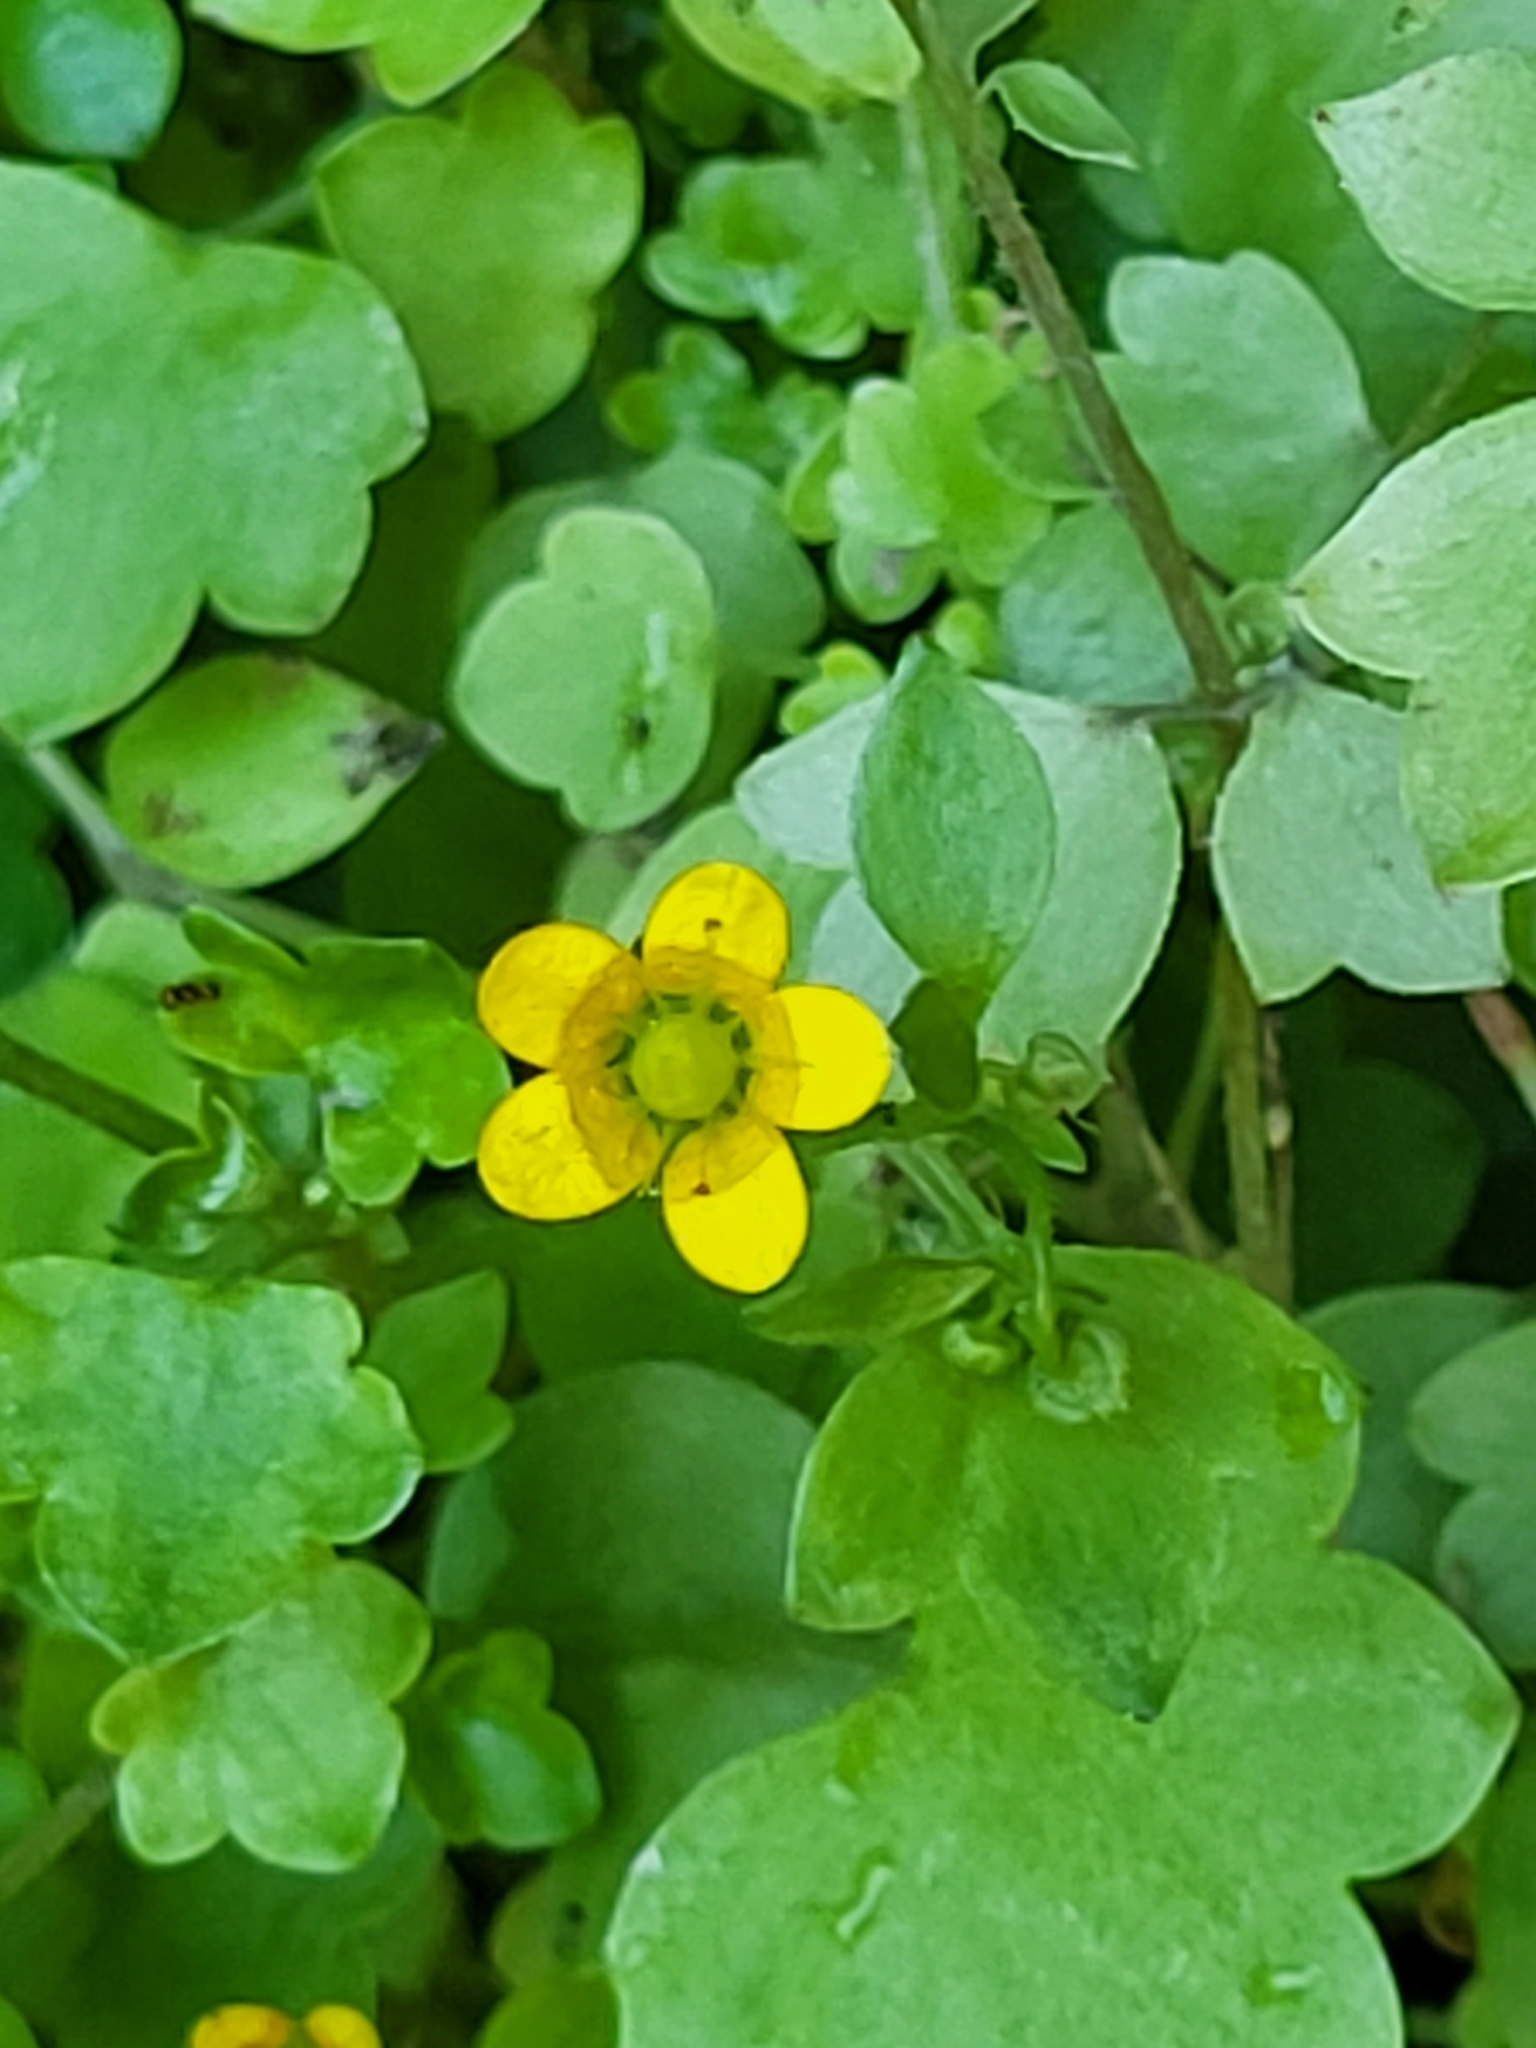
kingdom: Plantae
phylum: Tracheophyta
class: Magnoliopsida
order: Saxifragales
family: Saxifragaceae
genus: Saxifraga
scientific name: Saxifraga cymbalaria
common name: Celandine saxifrage
